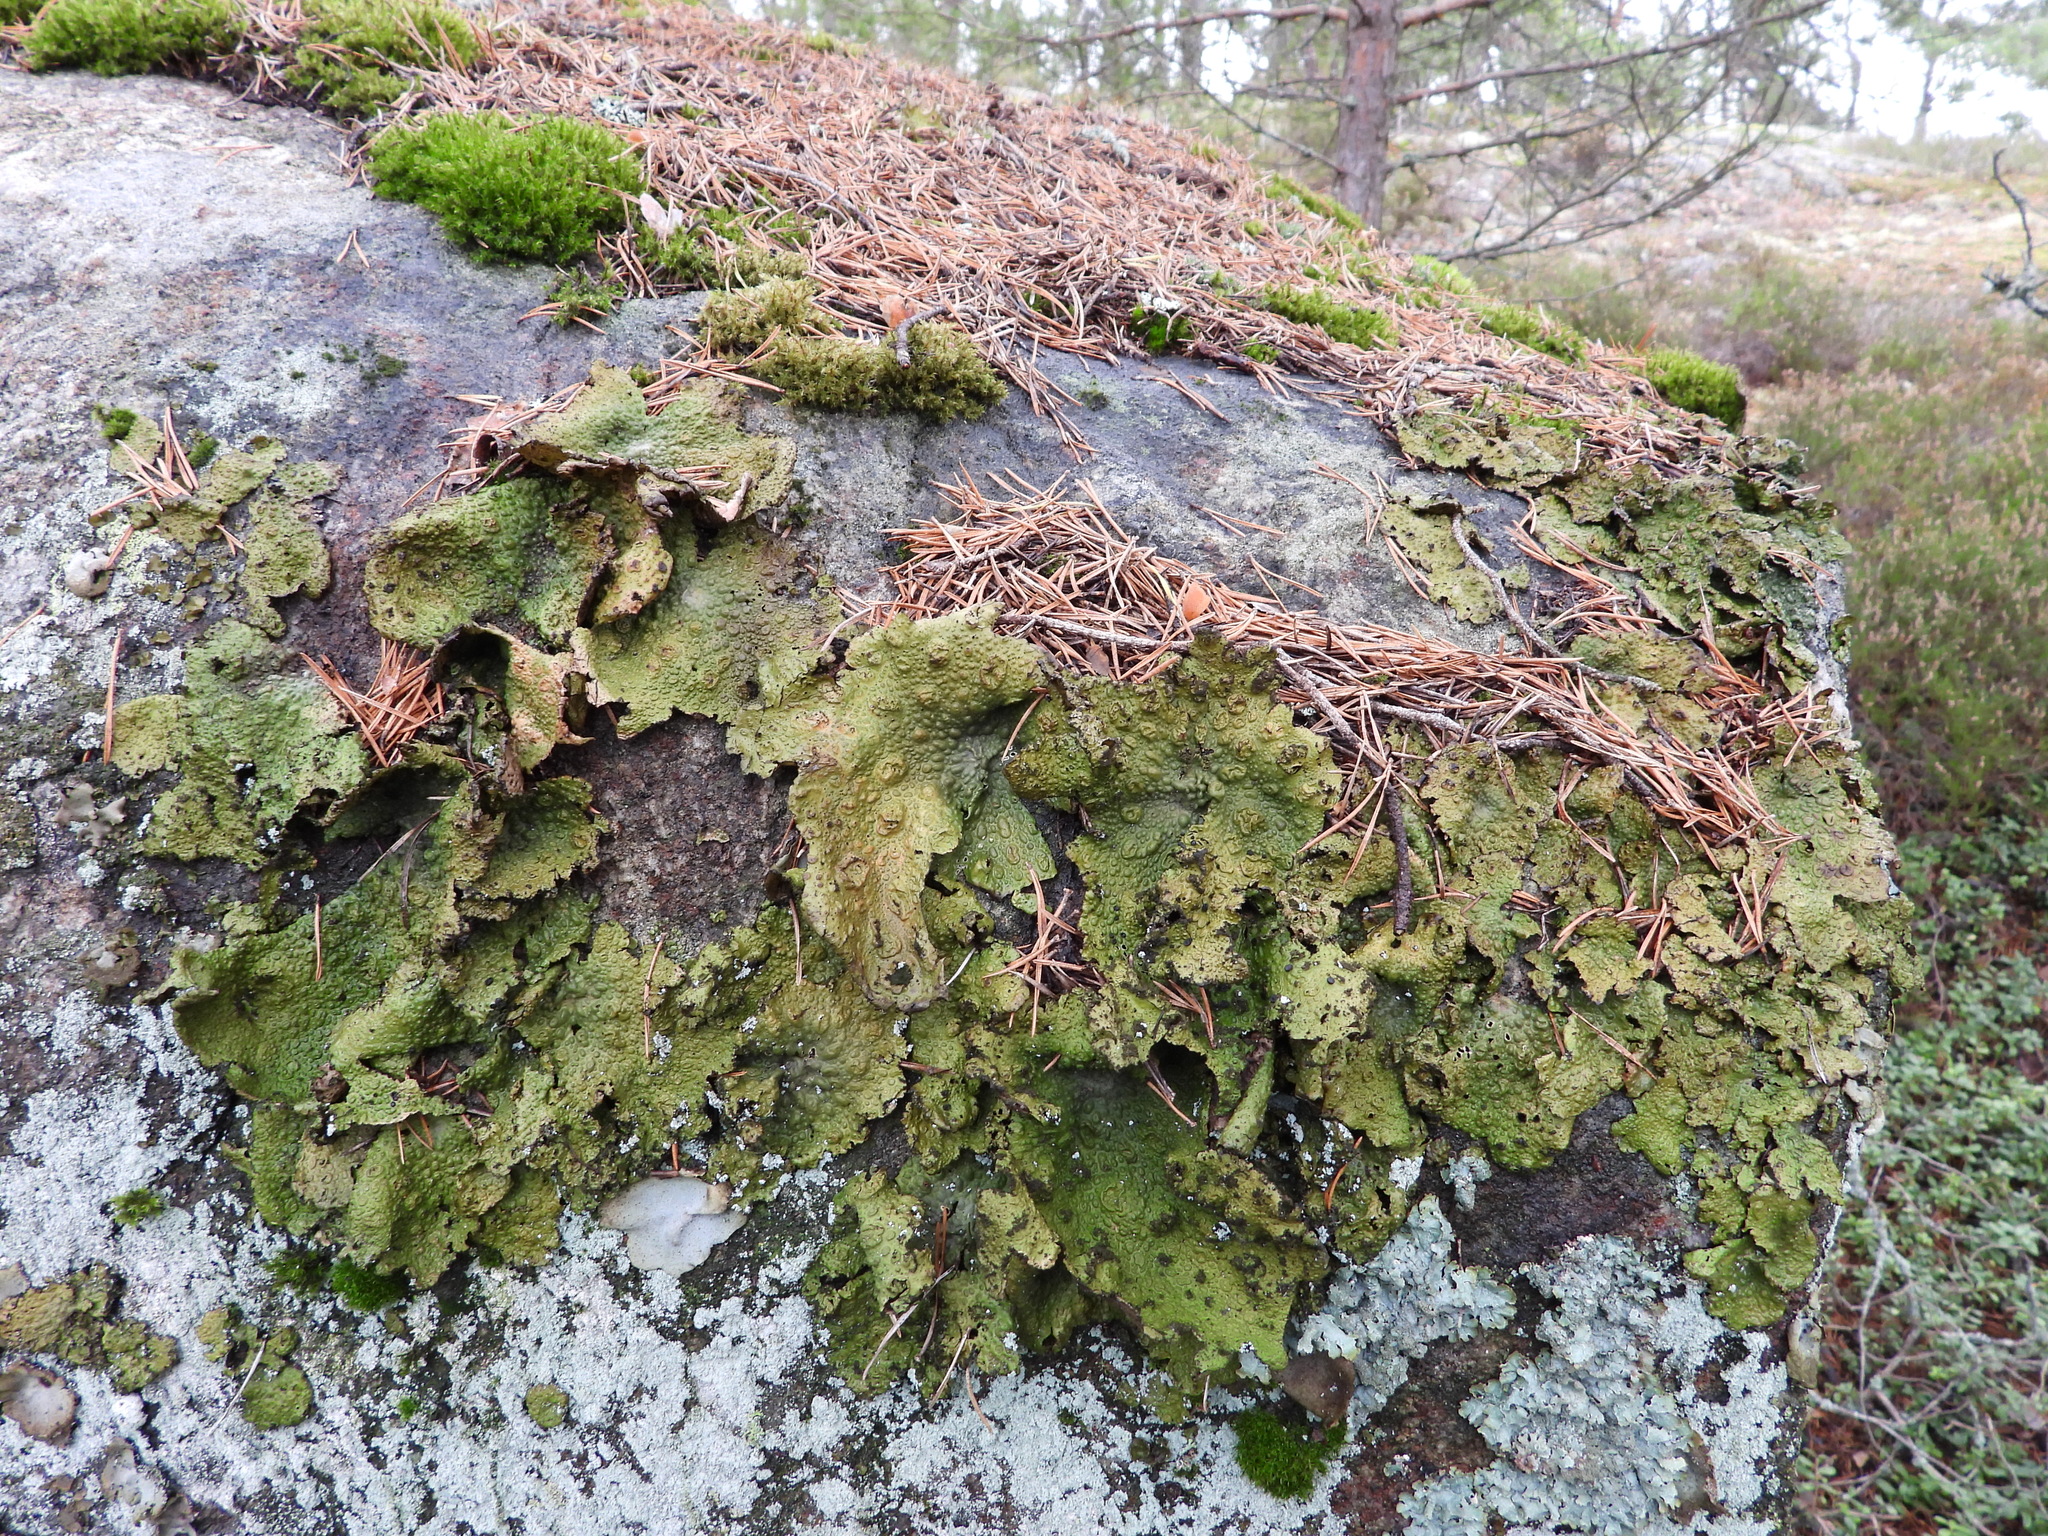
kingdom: Fungi
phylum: Ascomycota
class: Lecanoromycetes
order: Umbilicariales
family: Umbilicariaceae
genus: Lasallia
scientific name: Lasallia pustulata
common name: Blistered toadskin lichen
